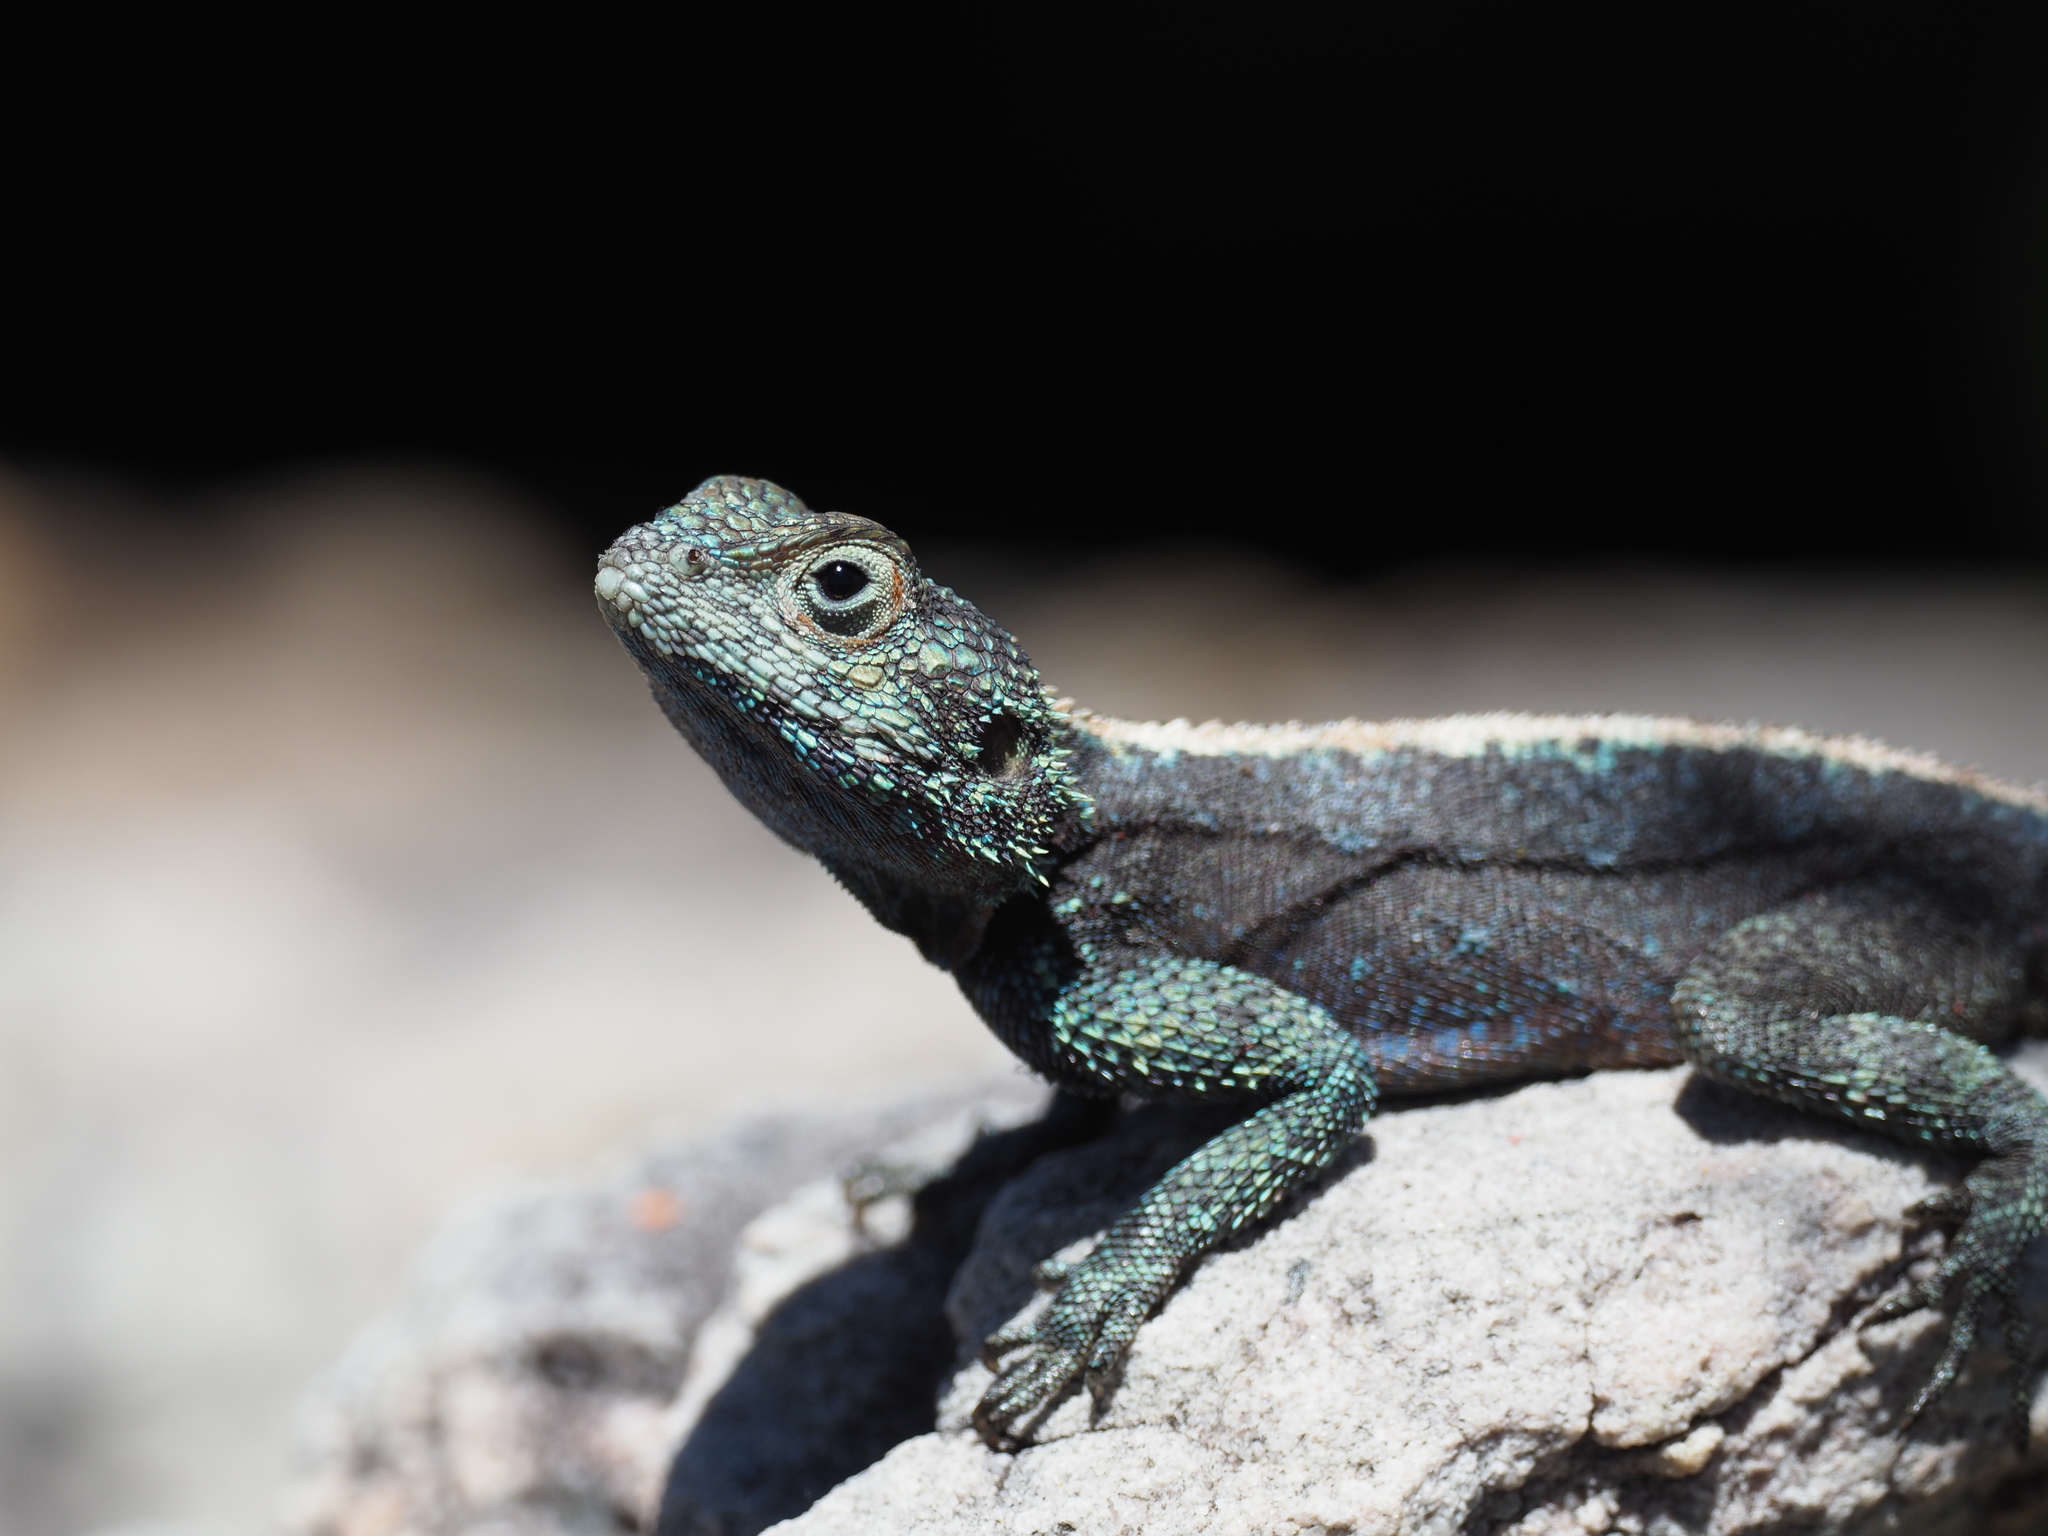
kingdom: Animalia
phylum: Chordata
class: Squamata
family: Agamidae
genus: Agama
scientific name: Agama atra
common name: Southern african rock agama
